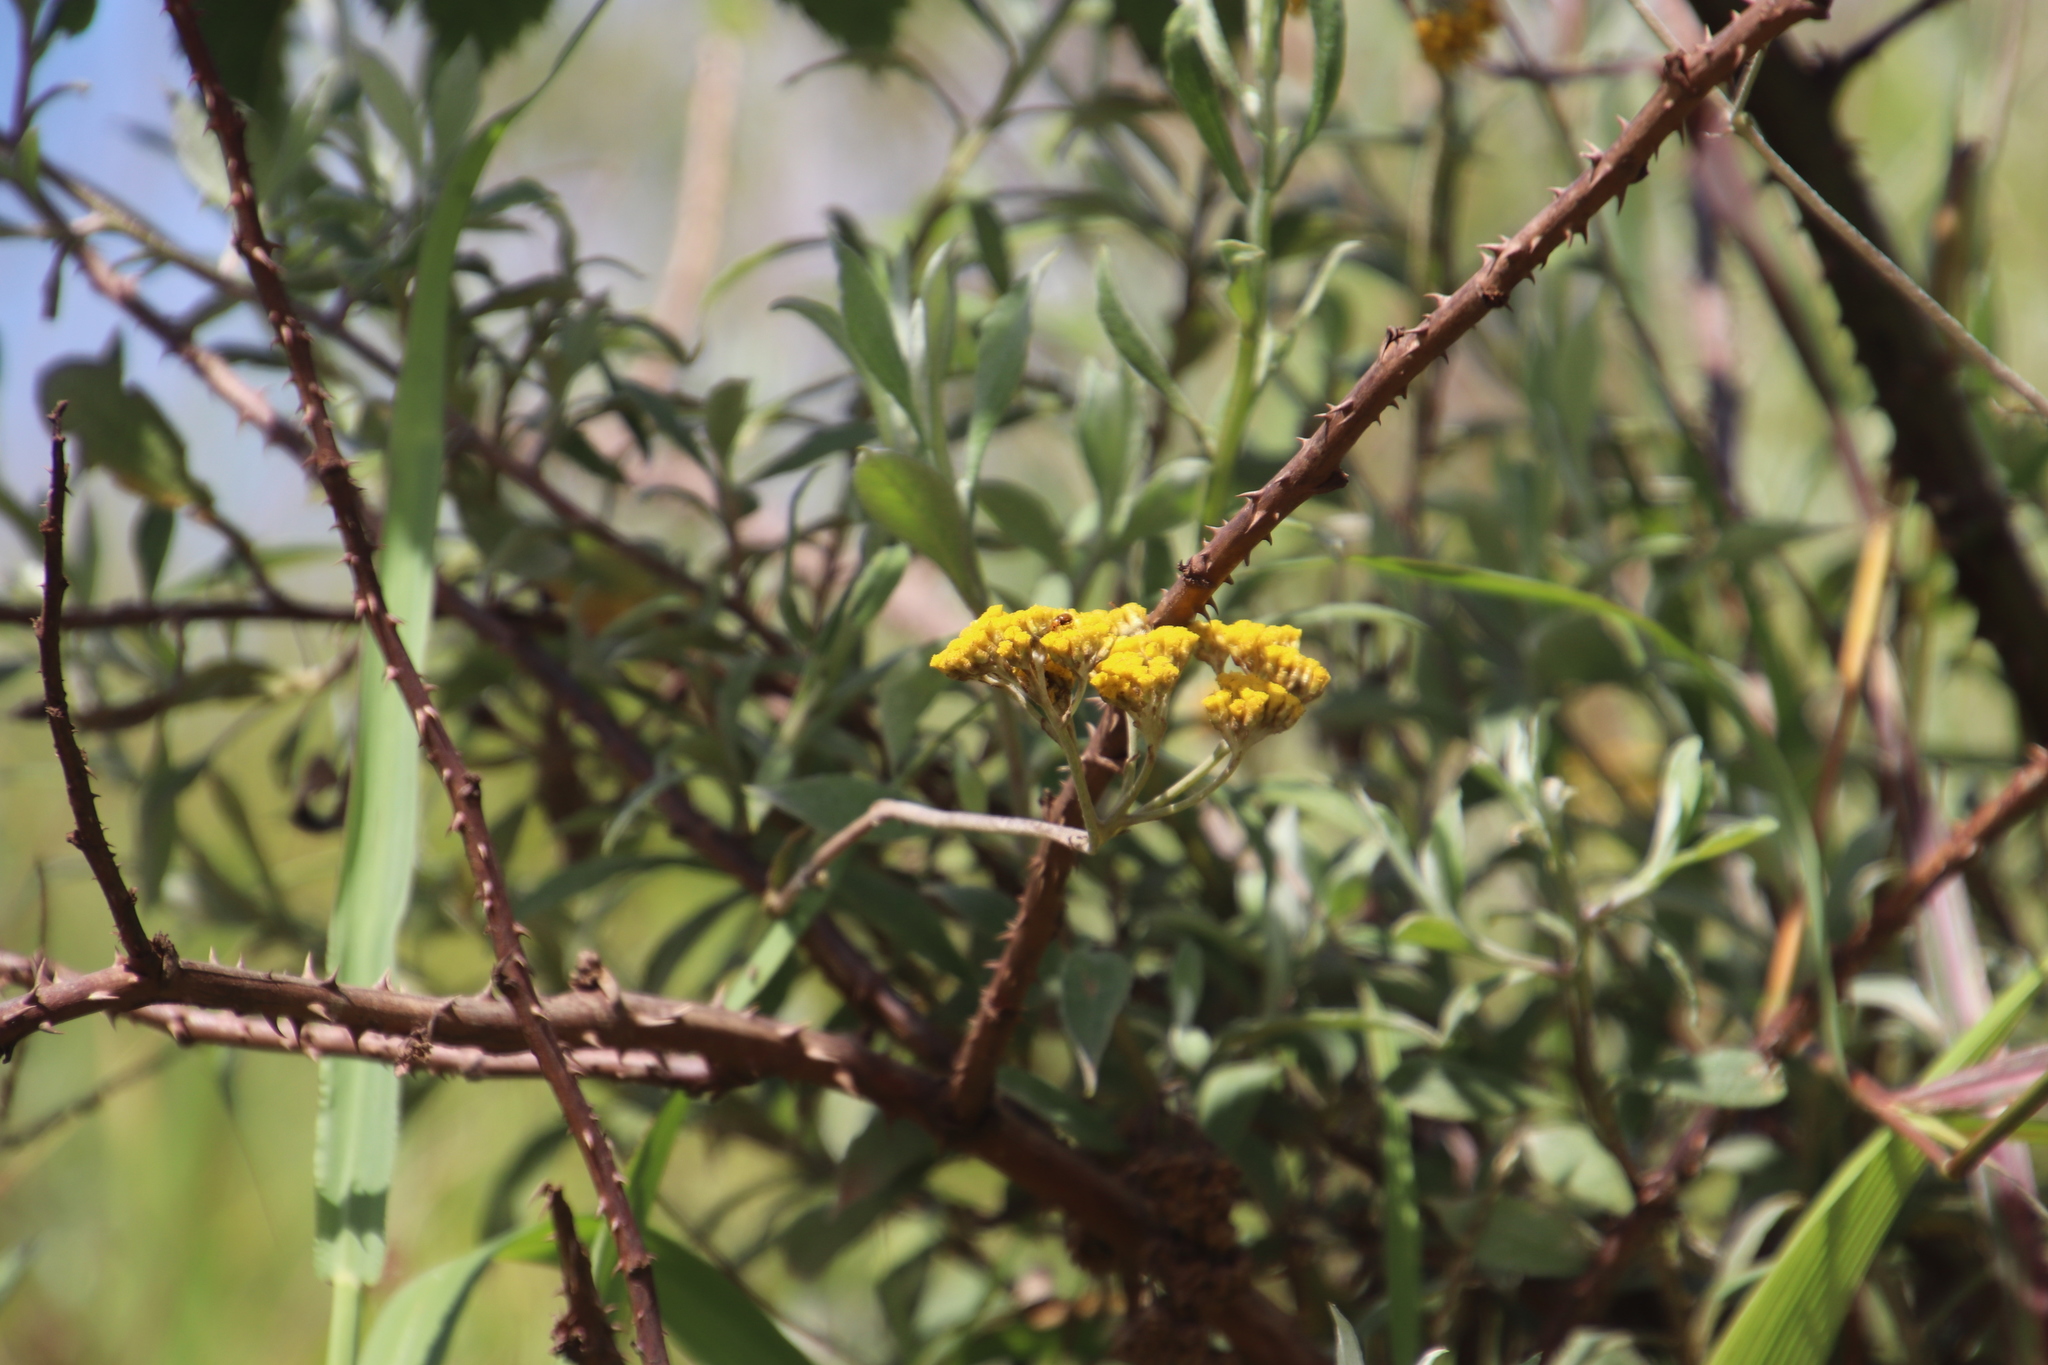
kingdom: Plantae
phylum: Tracheophyta
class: Magnoliopsida
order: Asterales
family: Asteraceae
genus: Helichrysum
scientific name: Helichrysum odoratissimum
